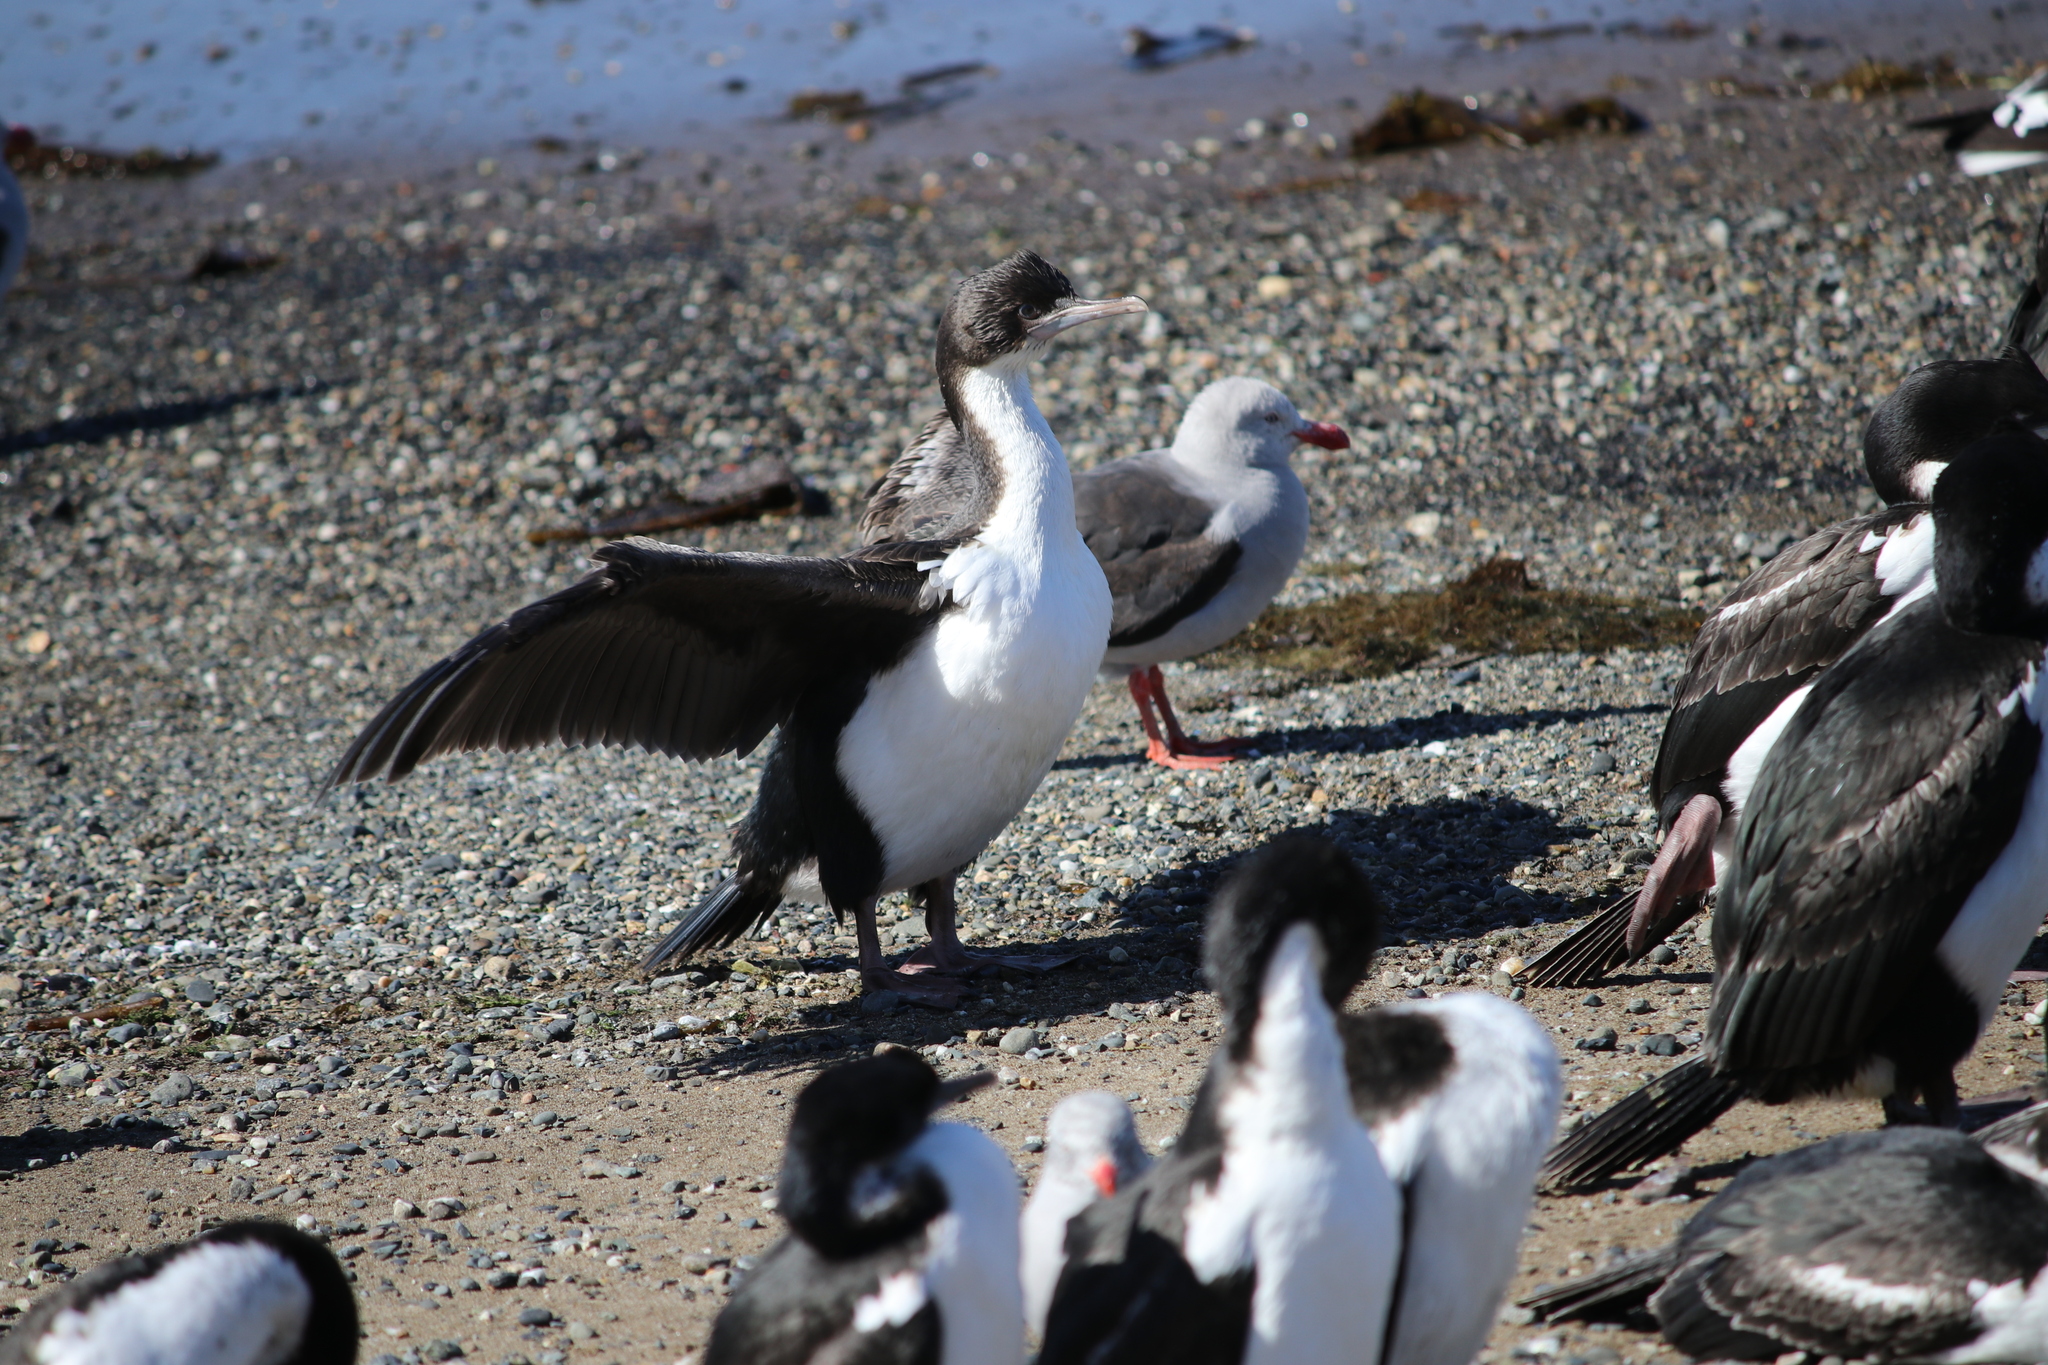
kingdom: Animalia
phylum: Chordata
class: Aves
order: Suliformes
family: Phalacrocoracidae
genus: Leucocarbo
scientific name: Leucocarbo atriceps
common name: Imperial shag
